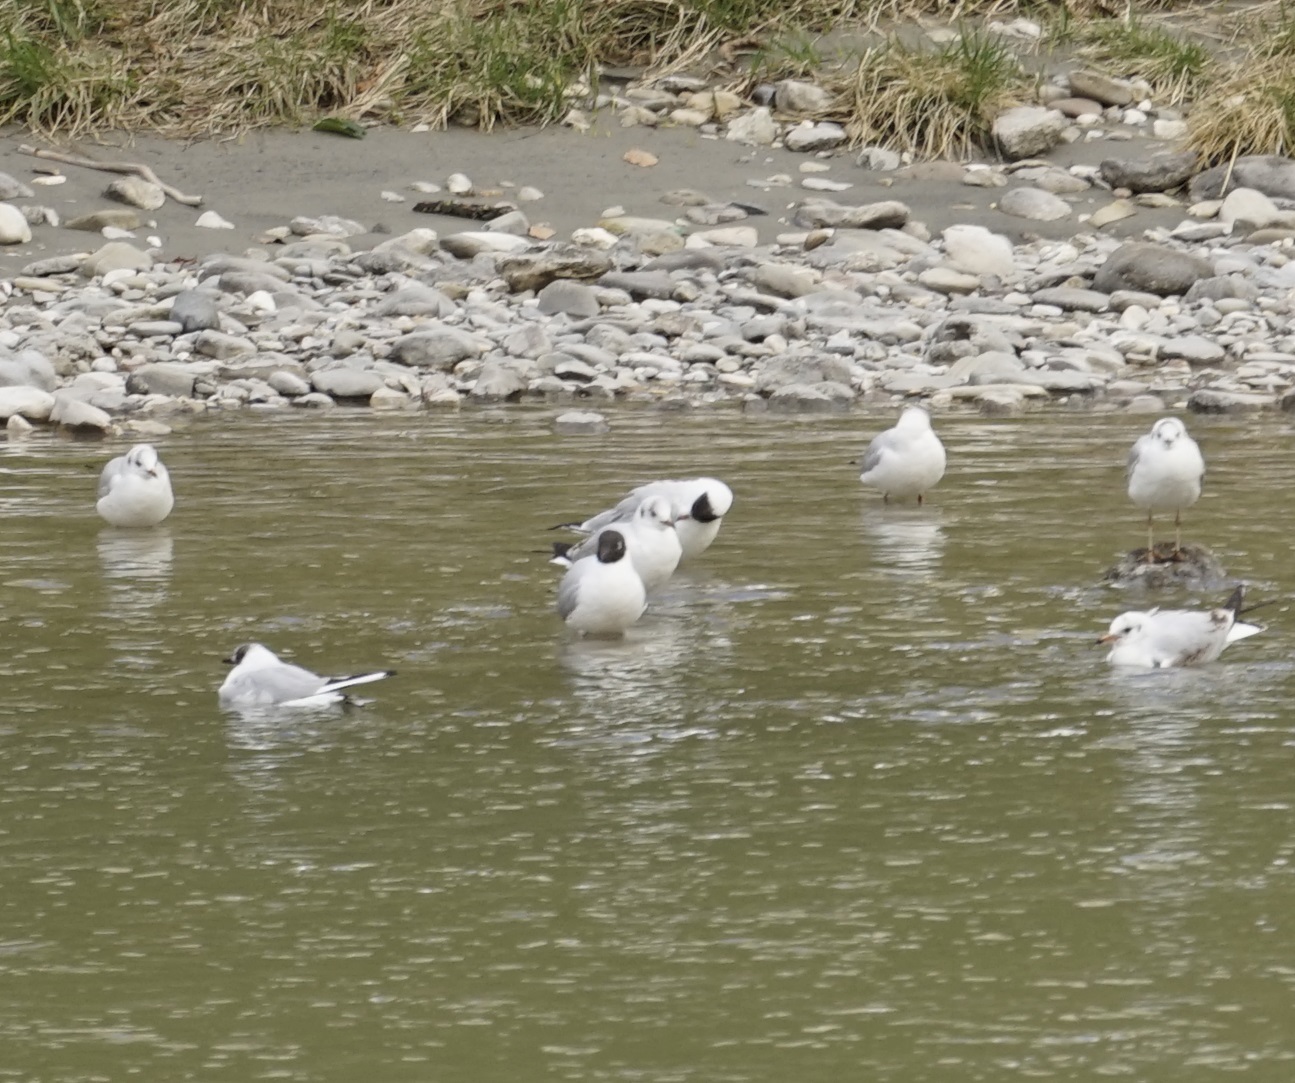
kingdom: Animalia
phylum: Chordata
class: Aves
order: Charadriiformes
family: Laridae
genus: Chroicocephalus
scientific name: Chroicocephalus ridibundus
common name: Black-headed gull
